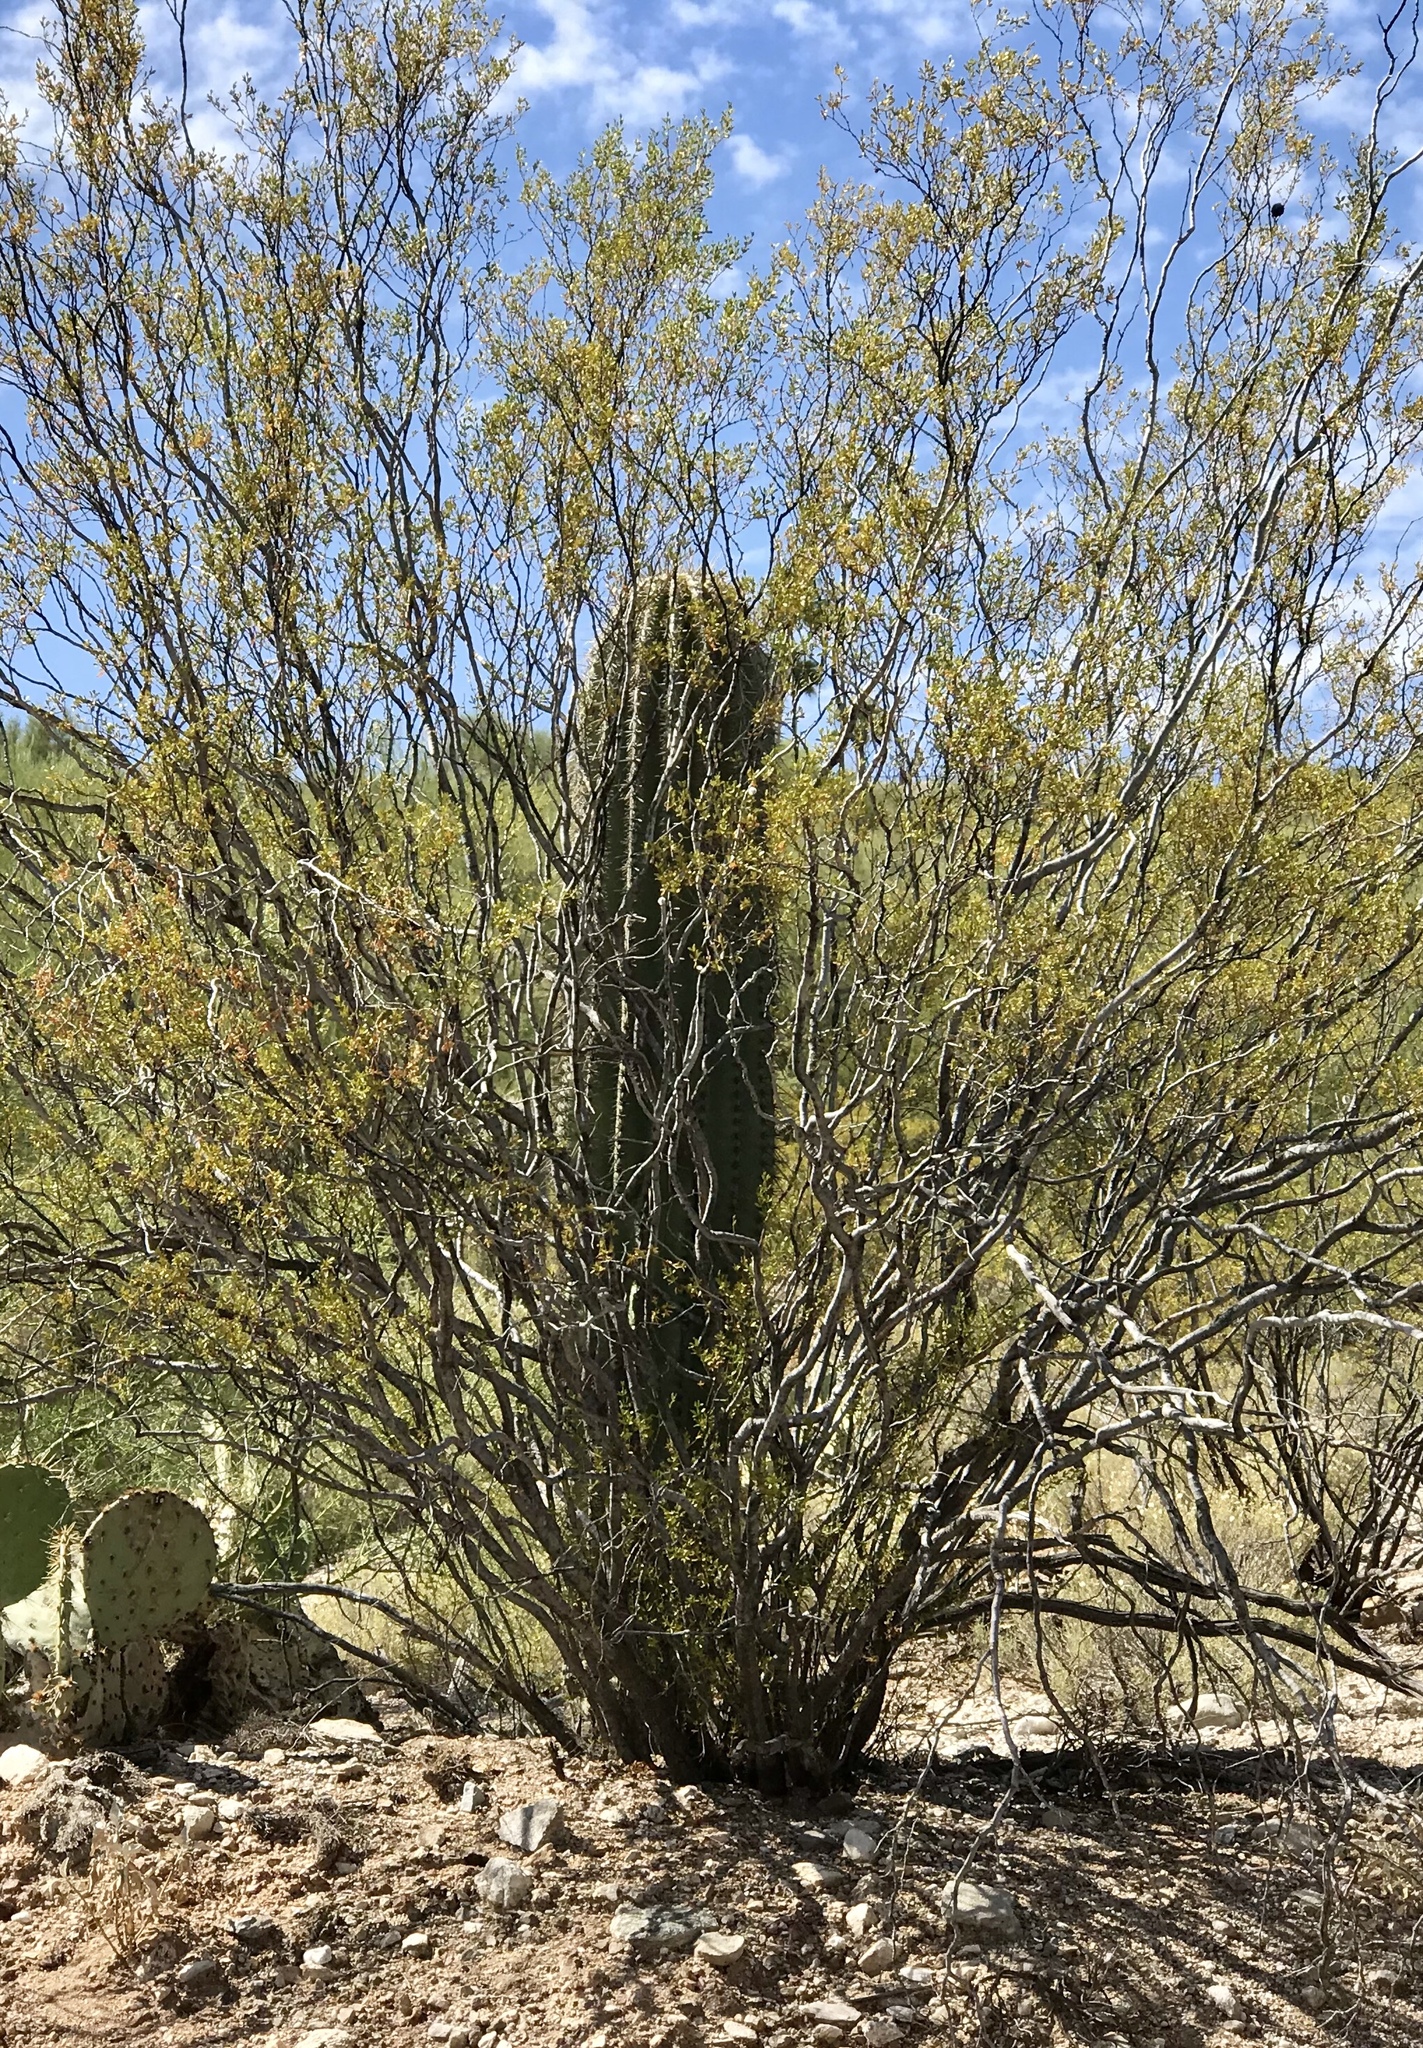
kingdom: Plantae
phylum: Tracheophyta
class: Magnoliopsida
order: Caryophyllales
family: Cactaceae
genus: Carnegiea
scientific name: Carnegiea gigantea
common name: Saguaro
